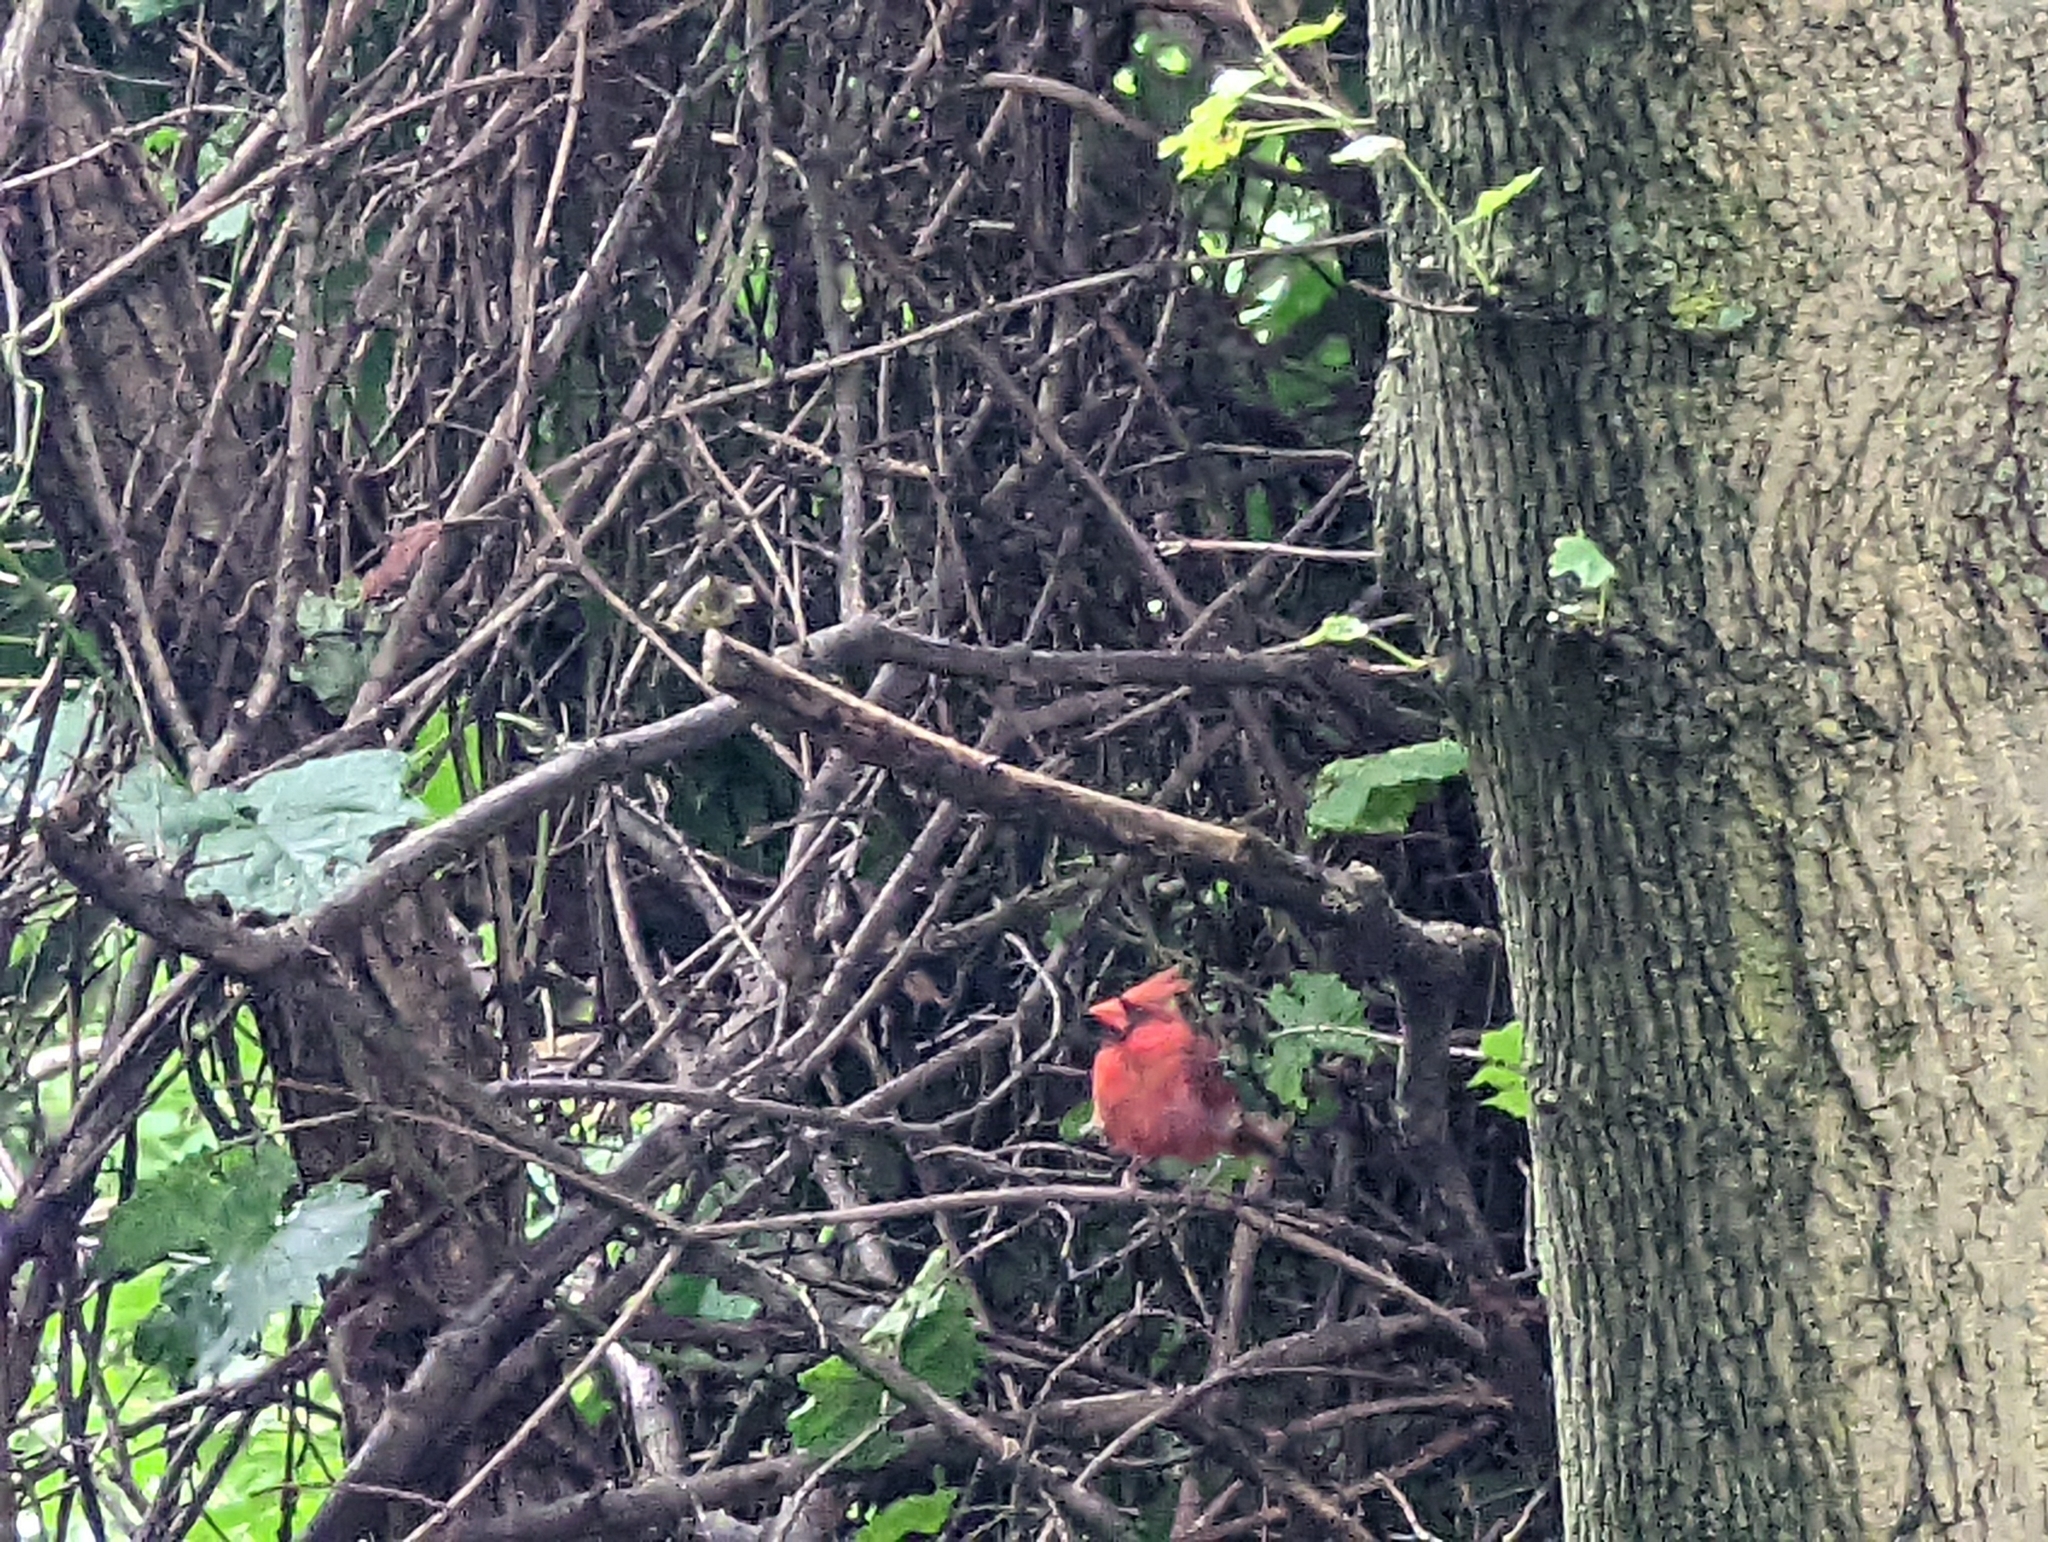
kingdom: Animalia
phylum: Chordata
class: Aves
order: Passeriformes
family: Cardinalidae
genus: Cardinalis
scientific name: Cardinalis cardinalis
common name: Northern cardinal
